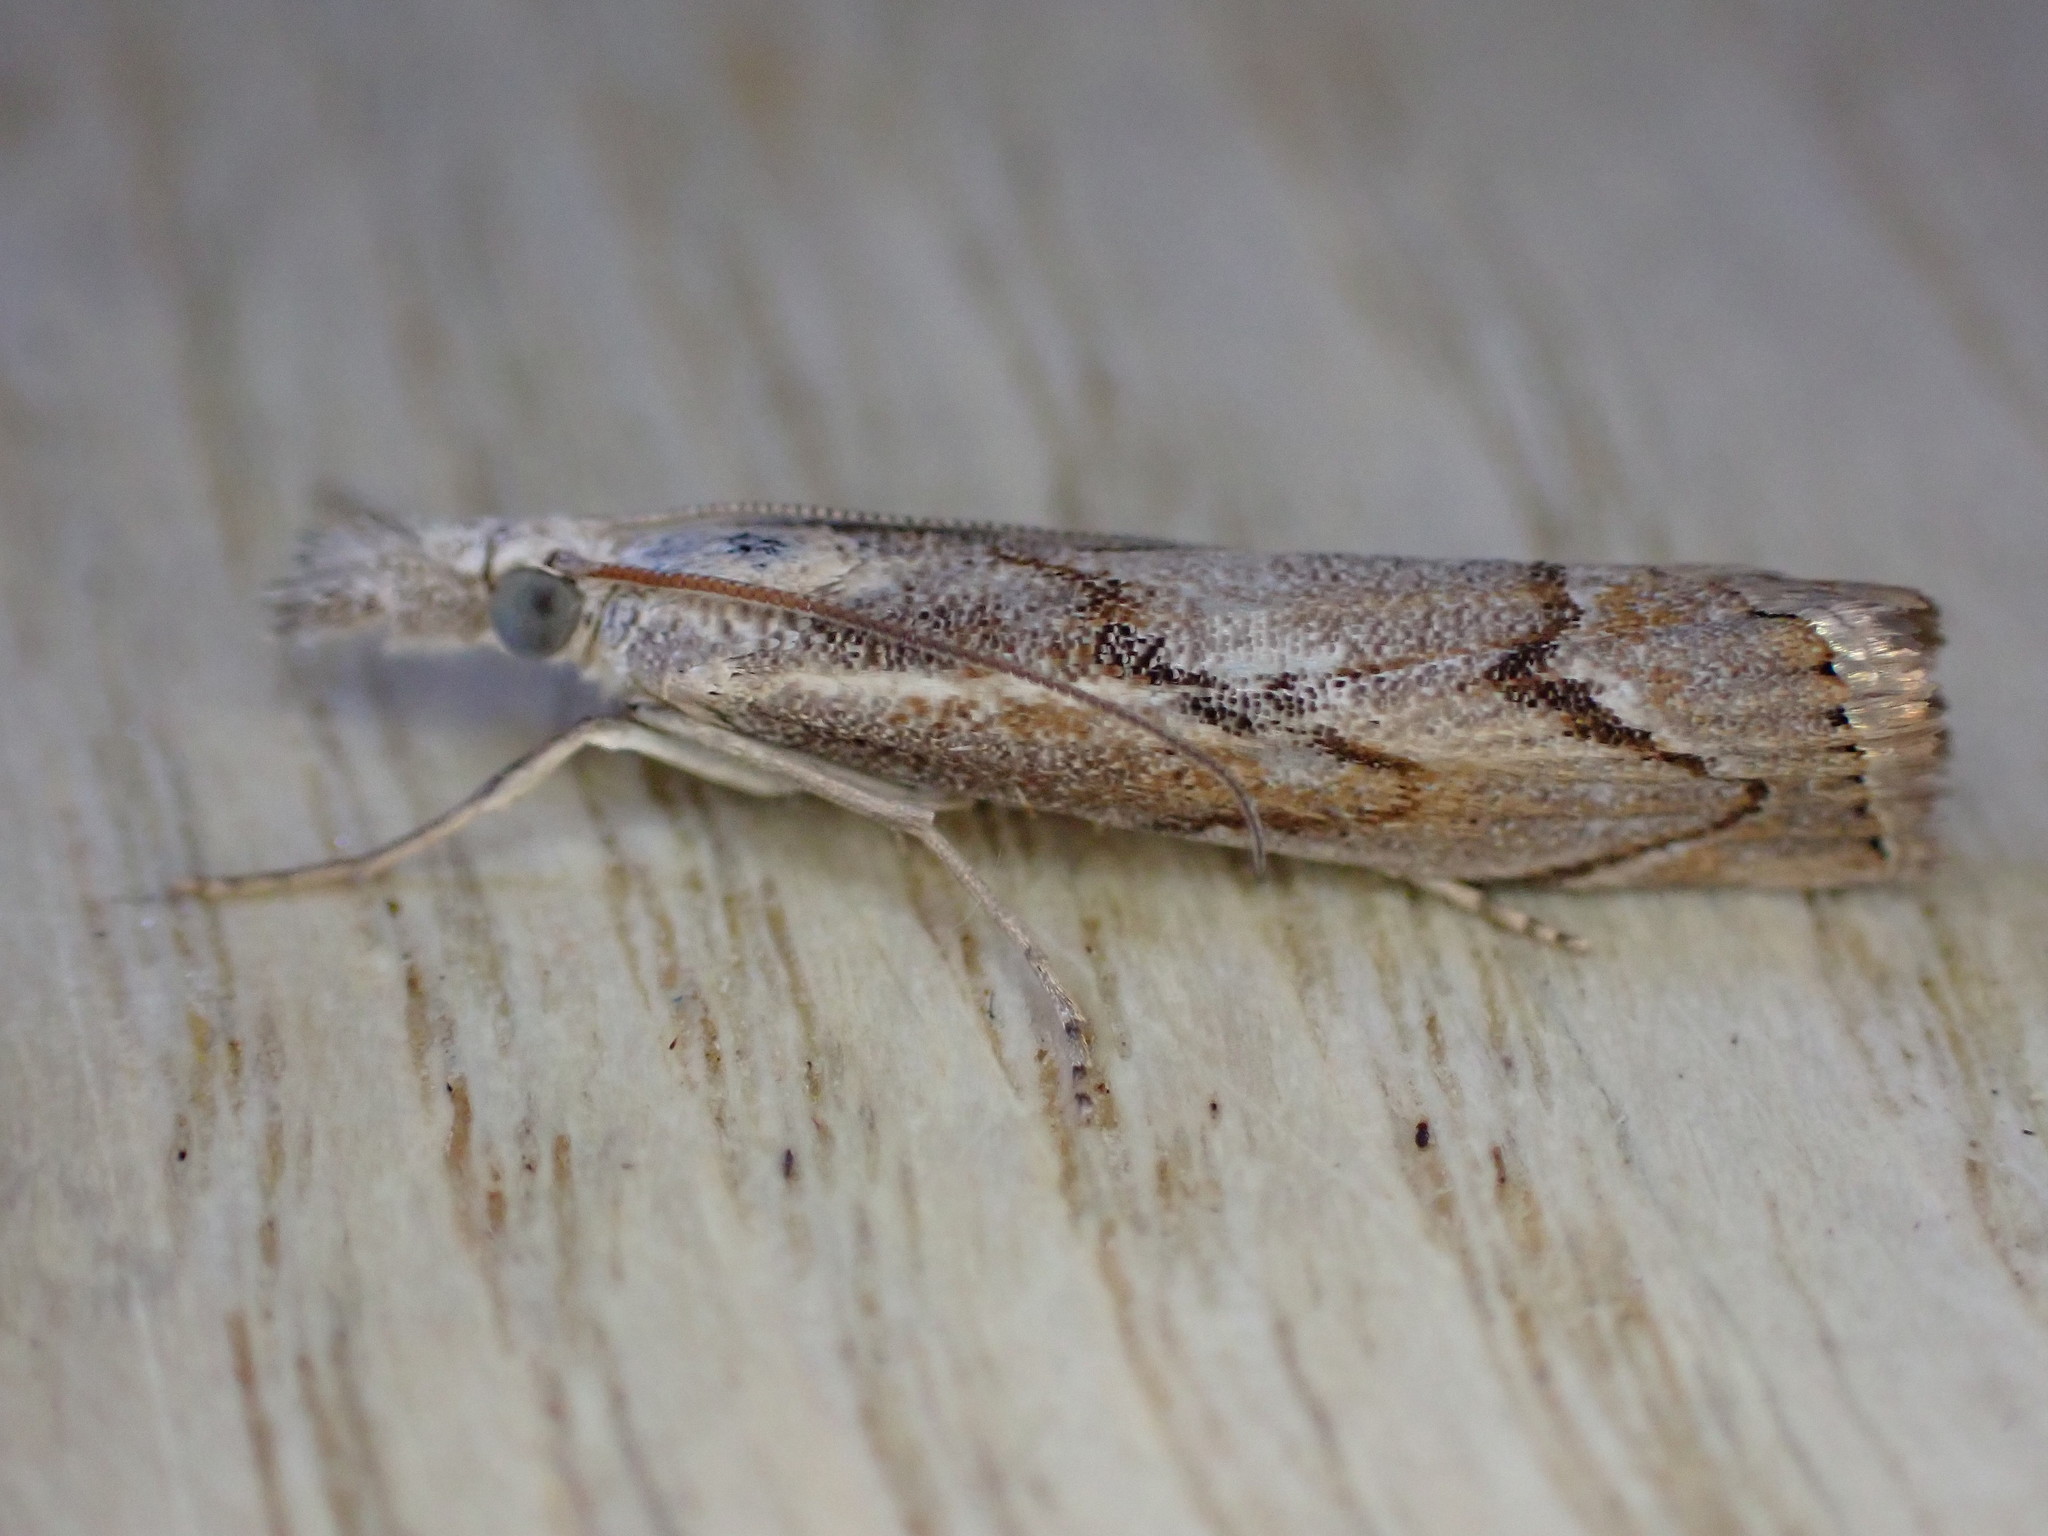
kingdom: Animalia
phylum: Arthropoda
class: Insecta
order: Lepidoptera
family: Crambidae
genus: Agriphila
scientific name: Agriphila geniculea
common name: Elbow-stripe grass-veneer
